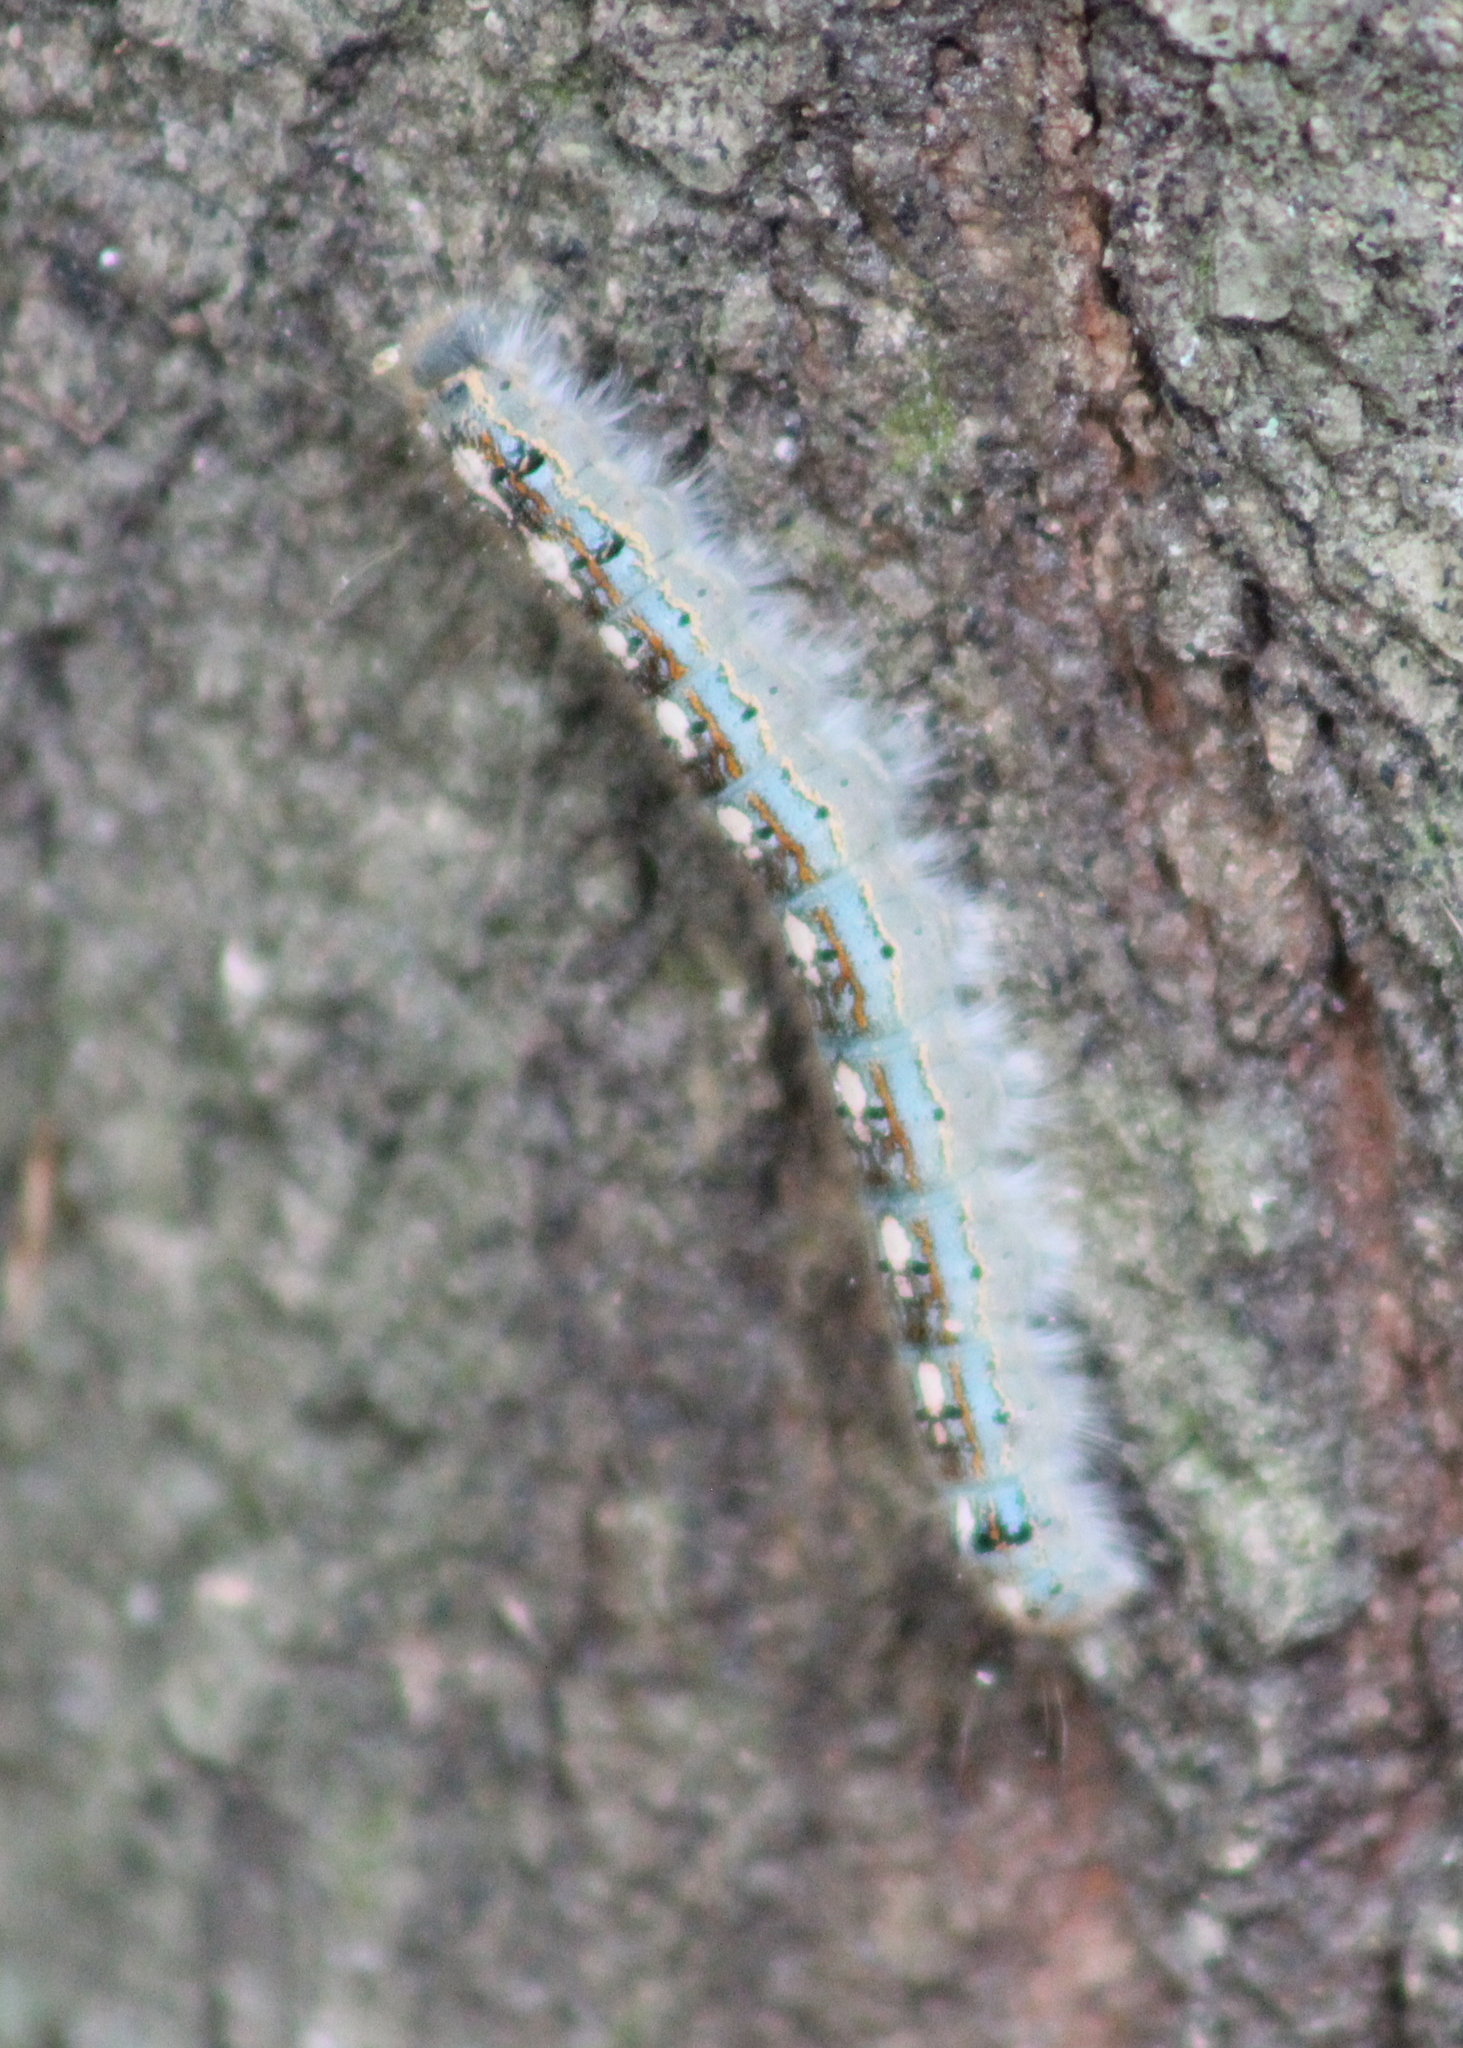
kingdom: Animalia
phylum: Arthropoda
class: Insecta
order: Lepidoptera
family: Lasiocampidae
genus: Malacosoma
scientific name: Malacosoma disstria
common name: Forest tent caterpillar
